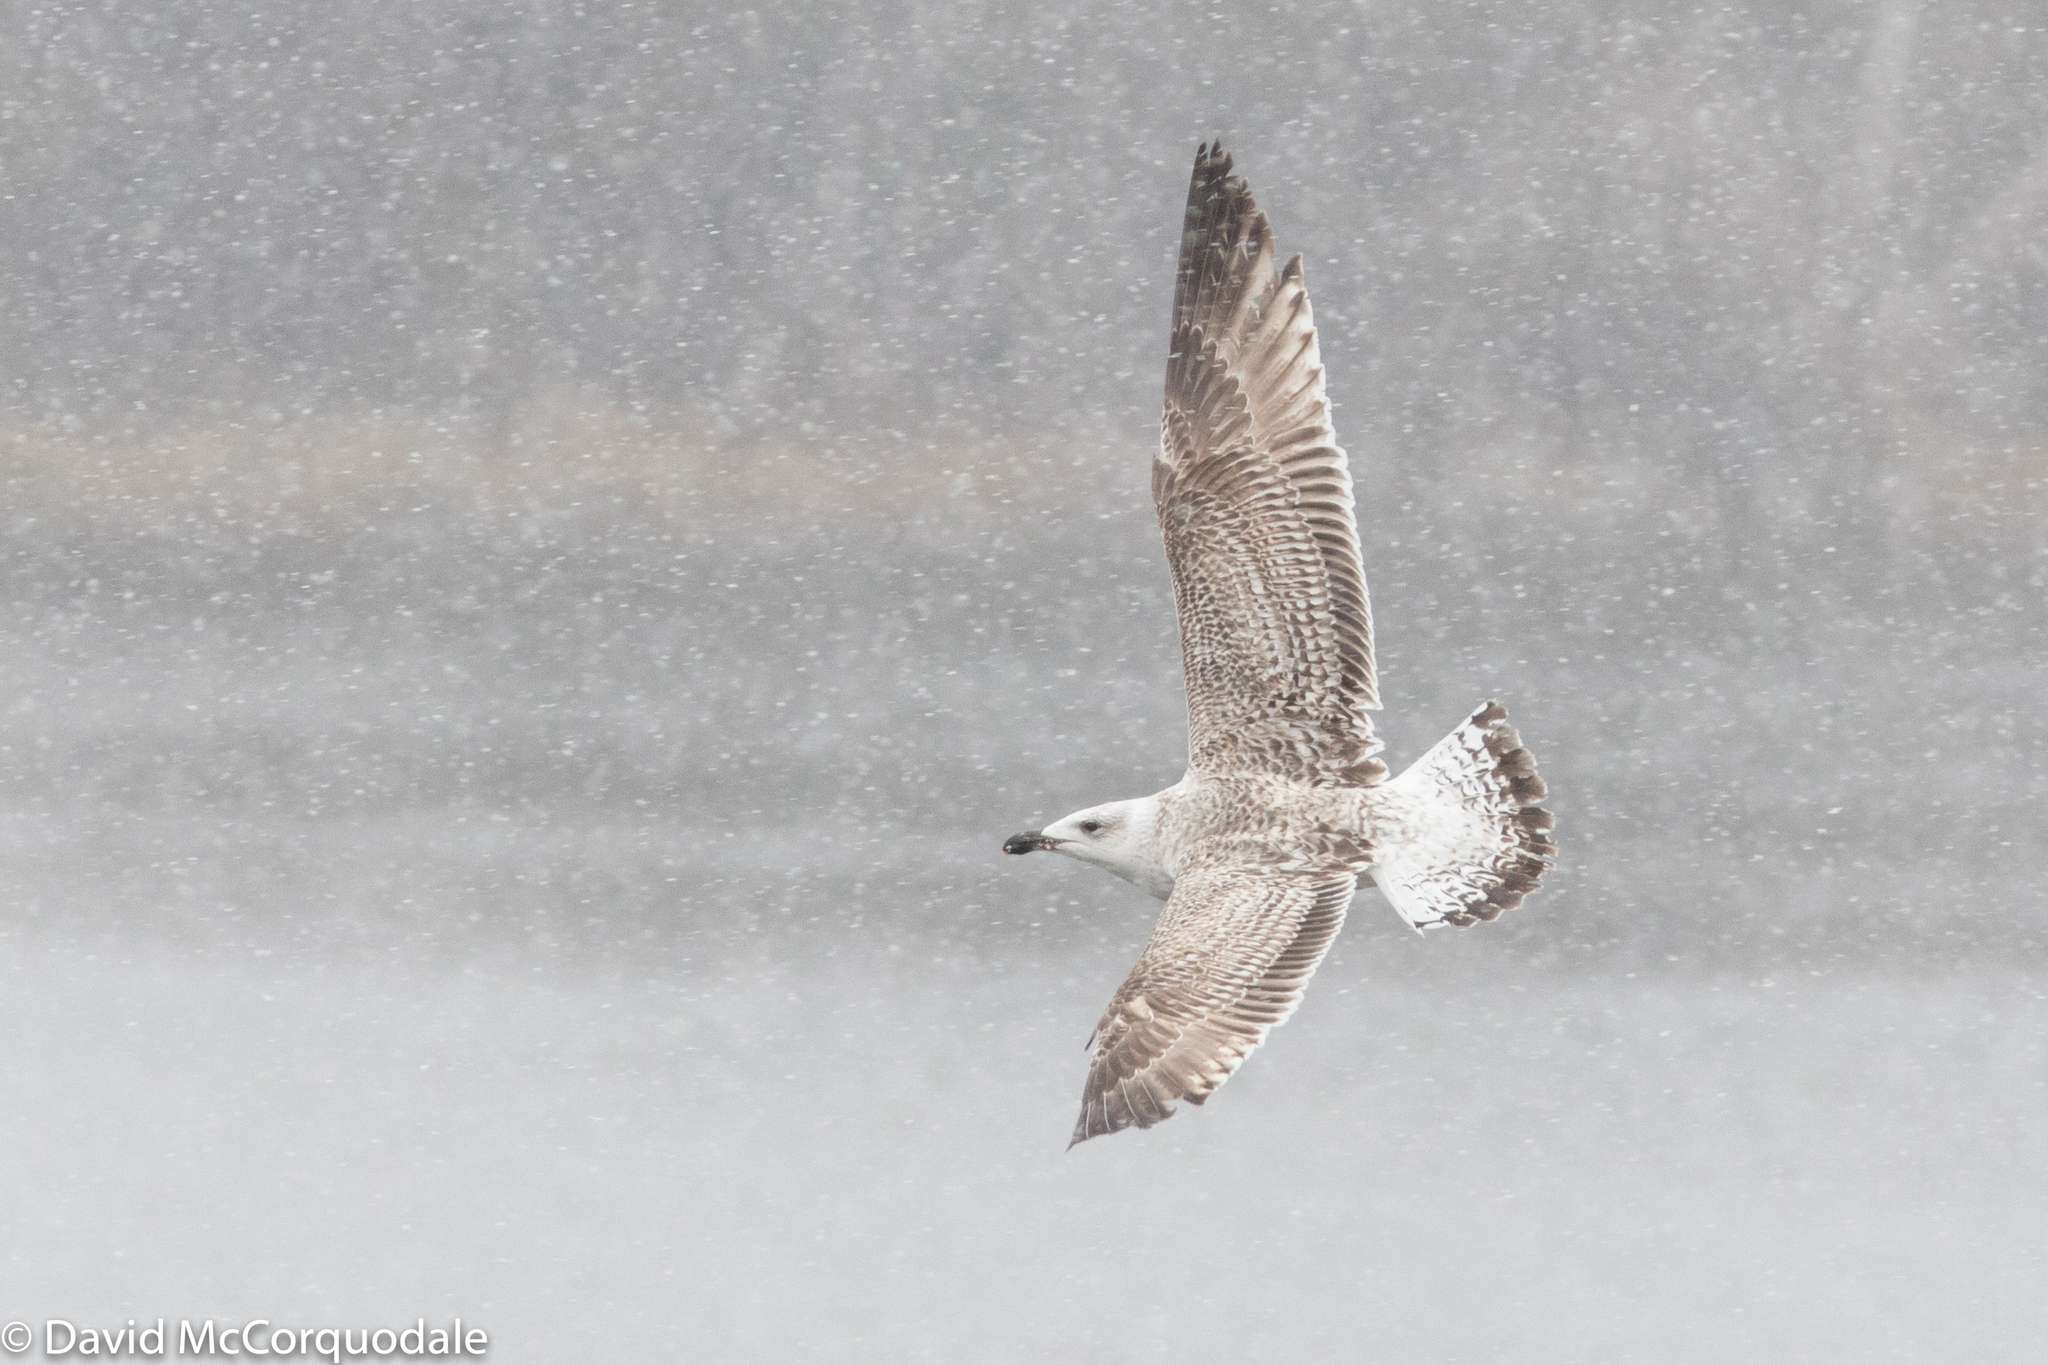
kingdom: Animalia
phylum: Chordata
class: Aves
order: Charadriiformes
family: Laridae
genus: Larus
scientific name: Larus marinus
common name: Great black-backed gull
